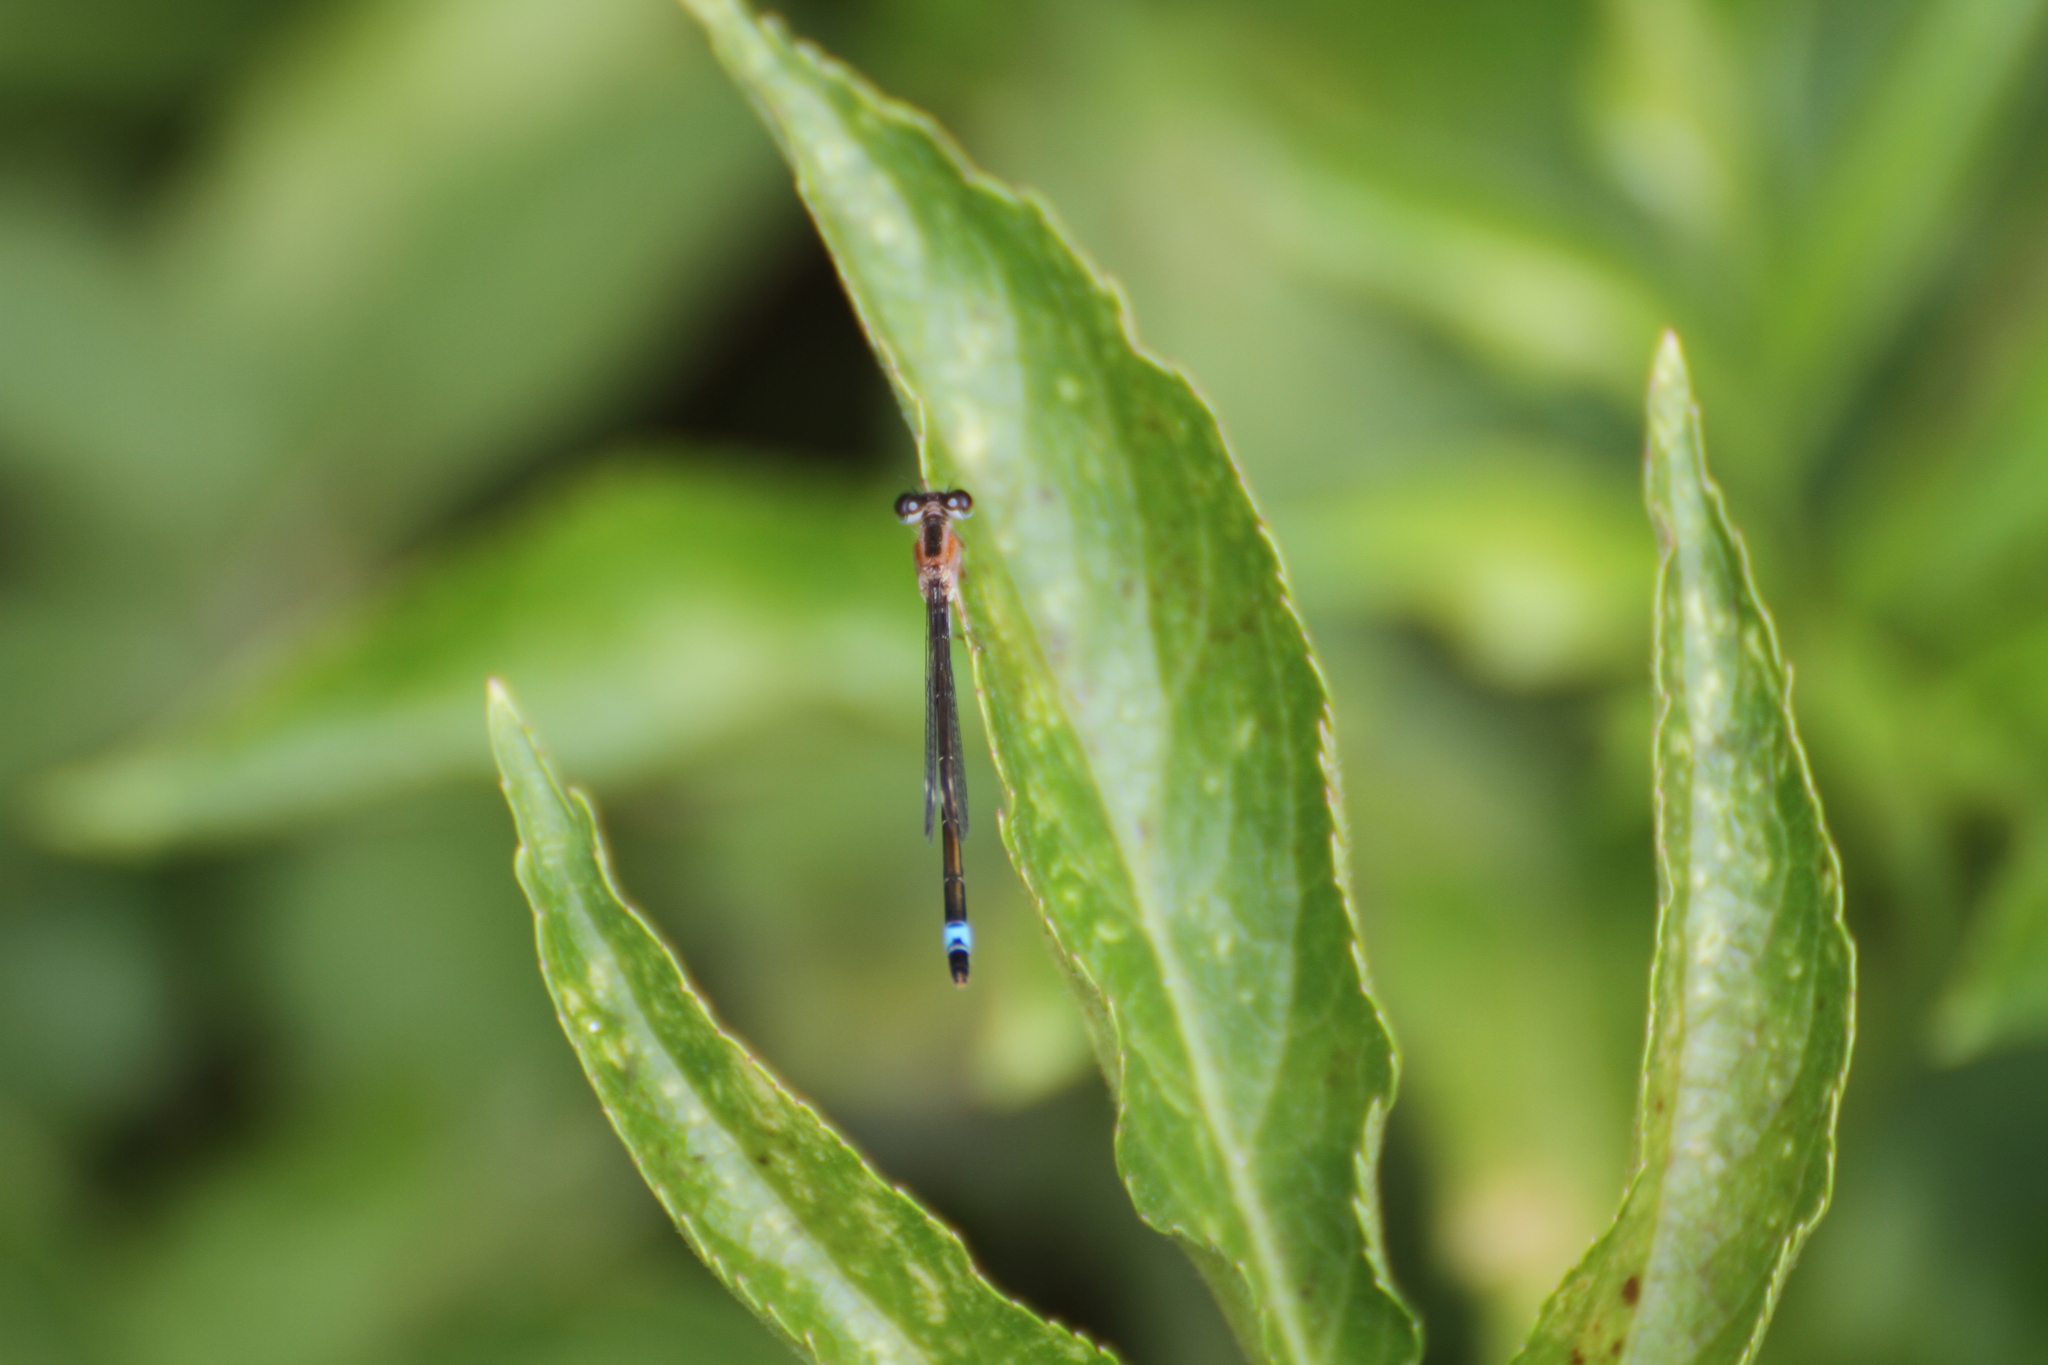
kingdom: Animalia
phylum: Arthropoda
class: Insecta
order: Odonata
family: Coenagrionidae
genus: Ischnura
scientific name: Ischnura elegans
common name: Blue-tailed damselfly
